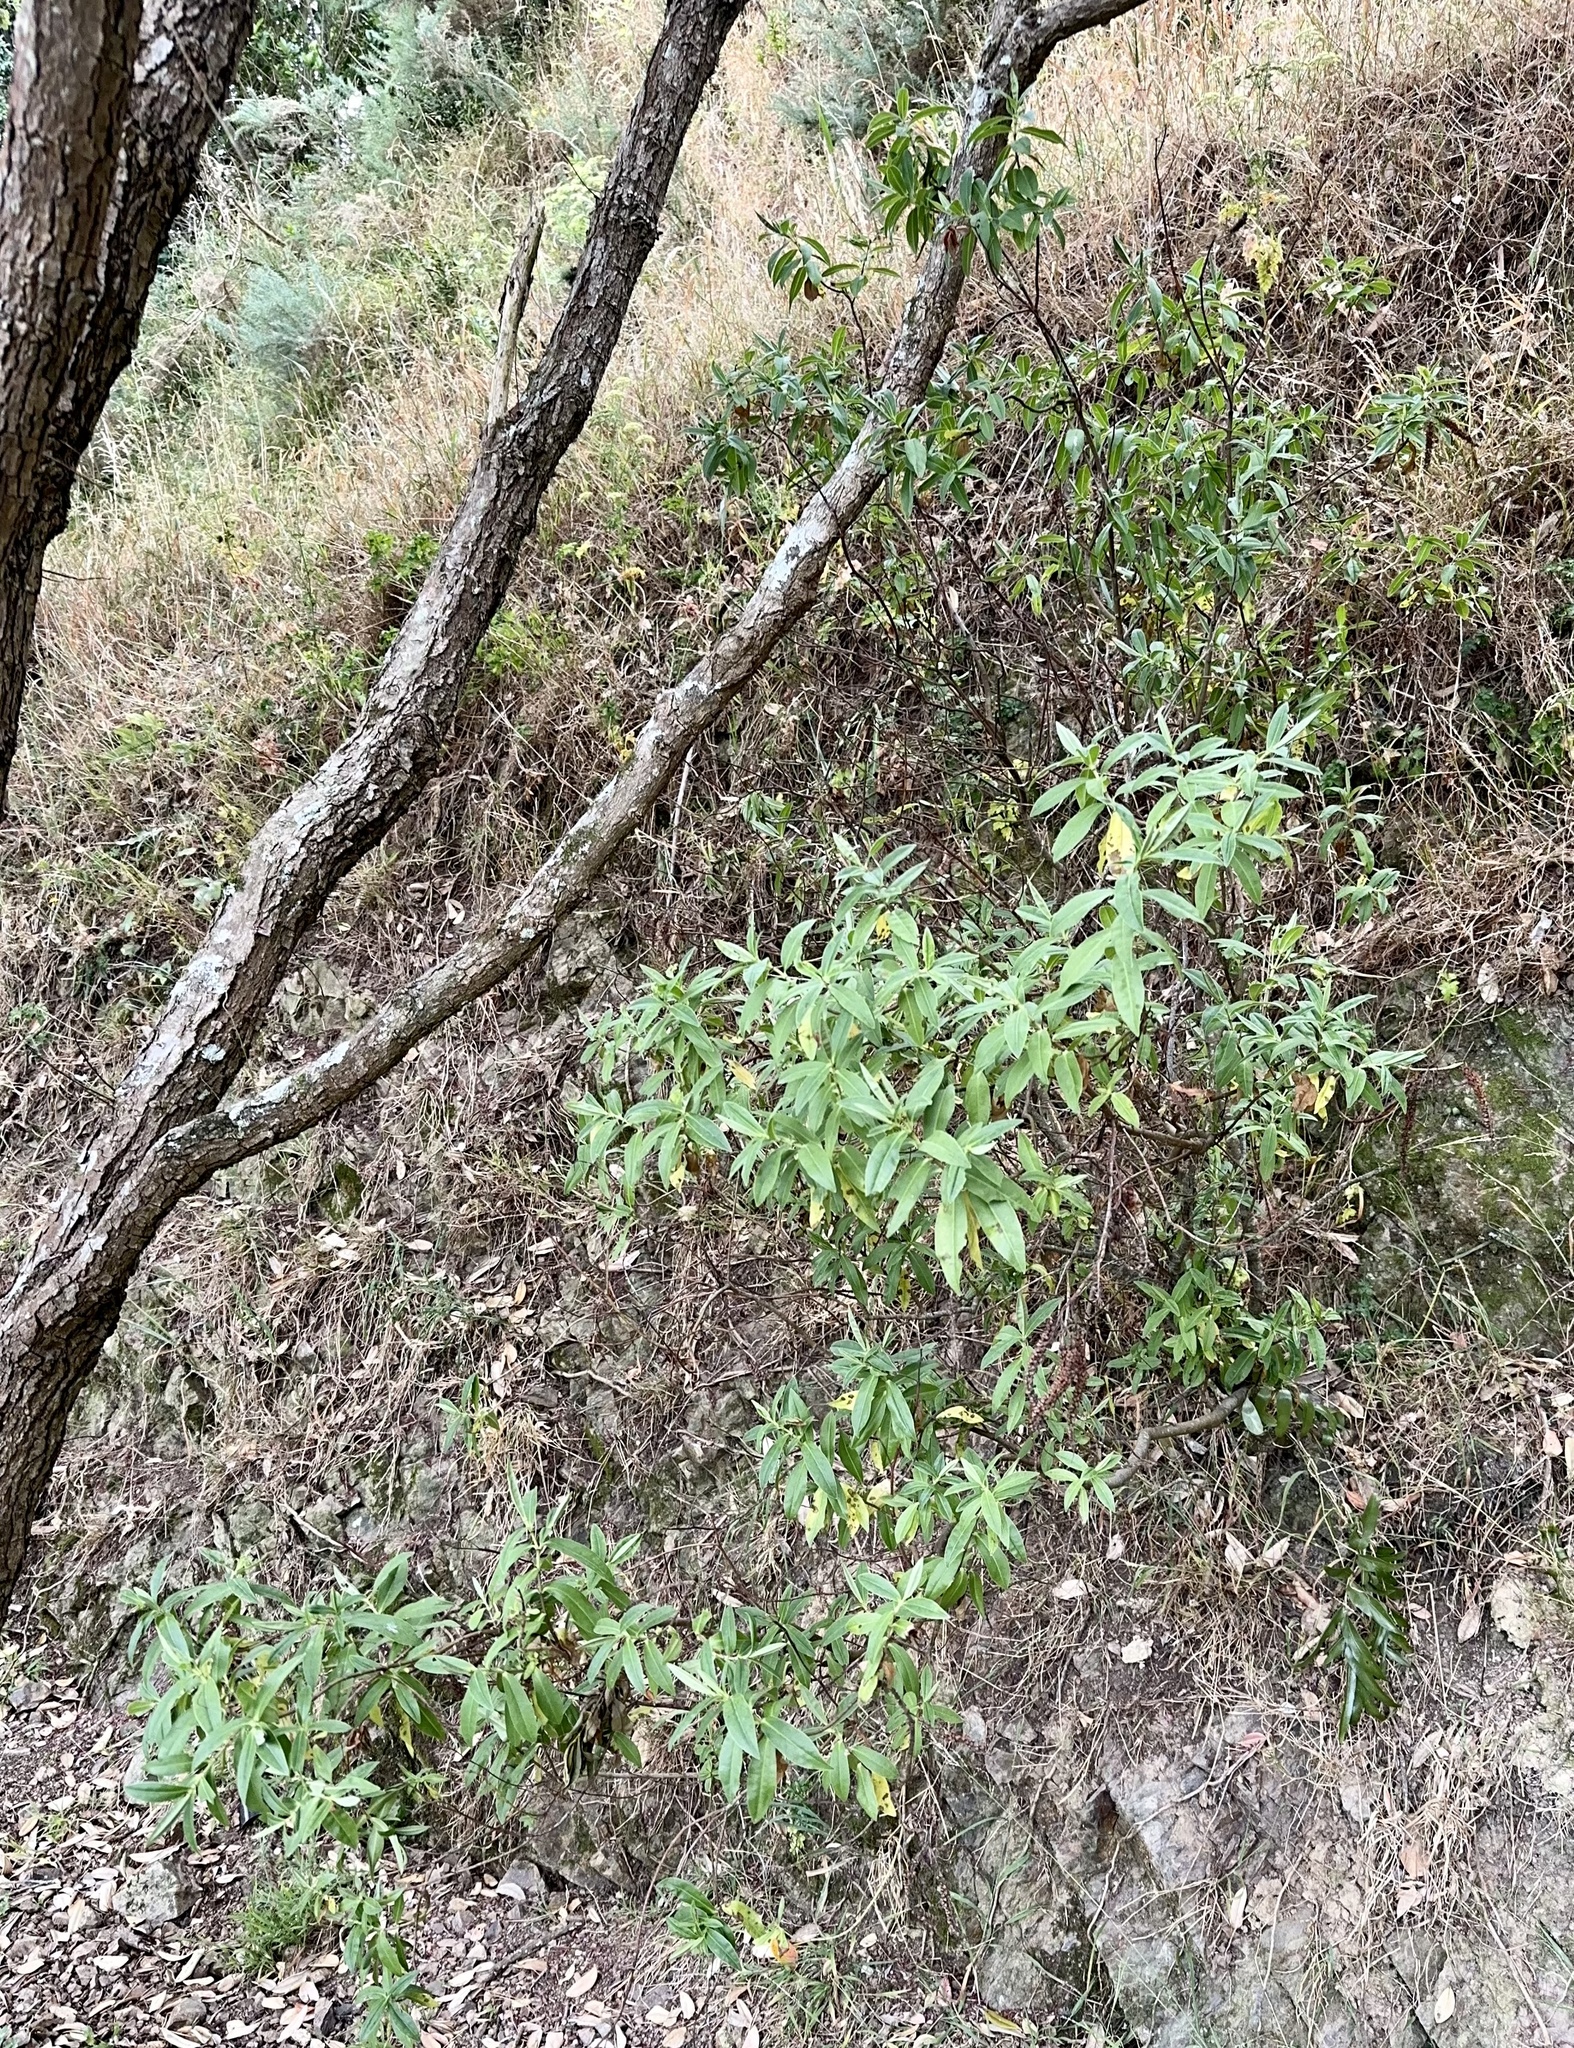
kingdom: Plantae
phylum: Tracheophyta
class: Magnoliopsida
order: Lamiales
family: Plantaginaceae
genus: Veronica
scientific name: Veronica stricta
